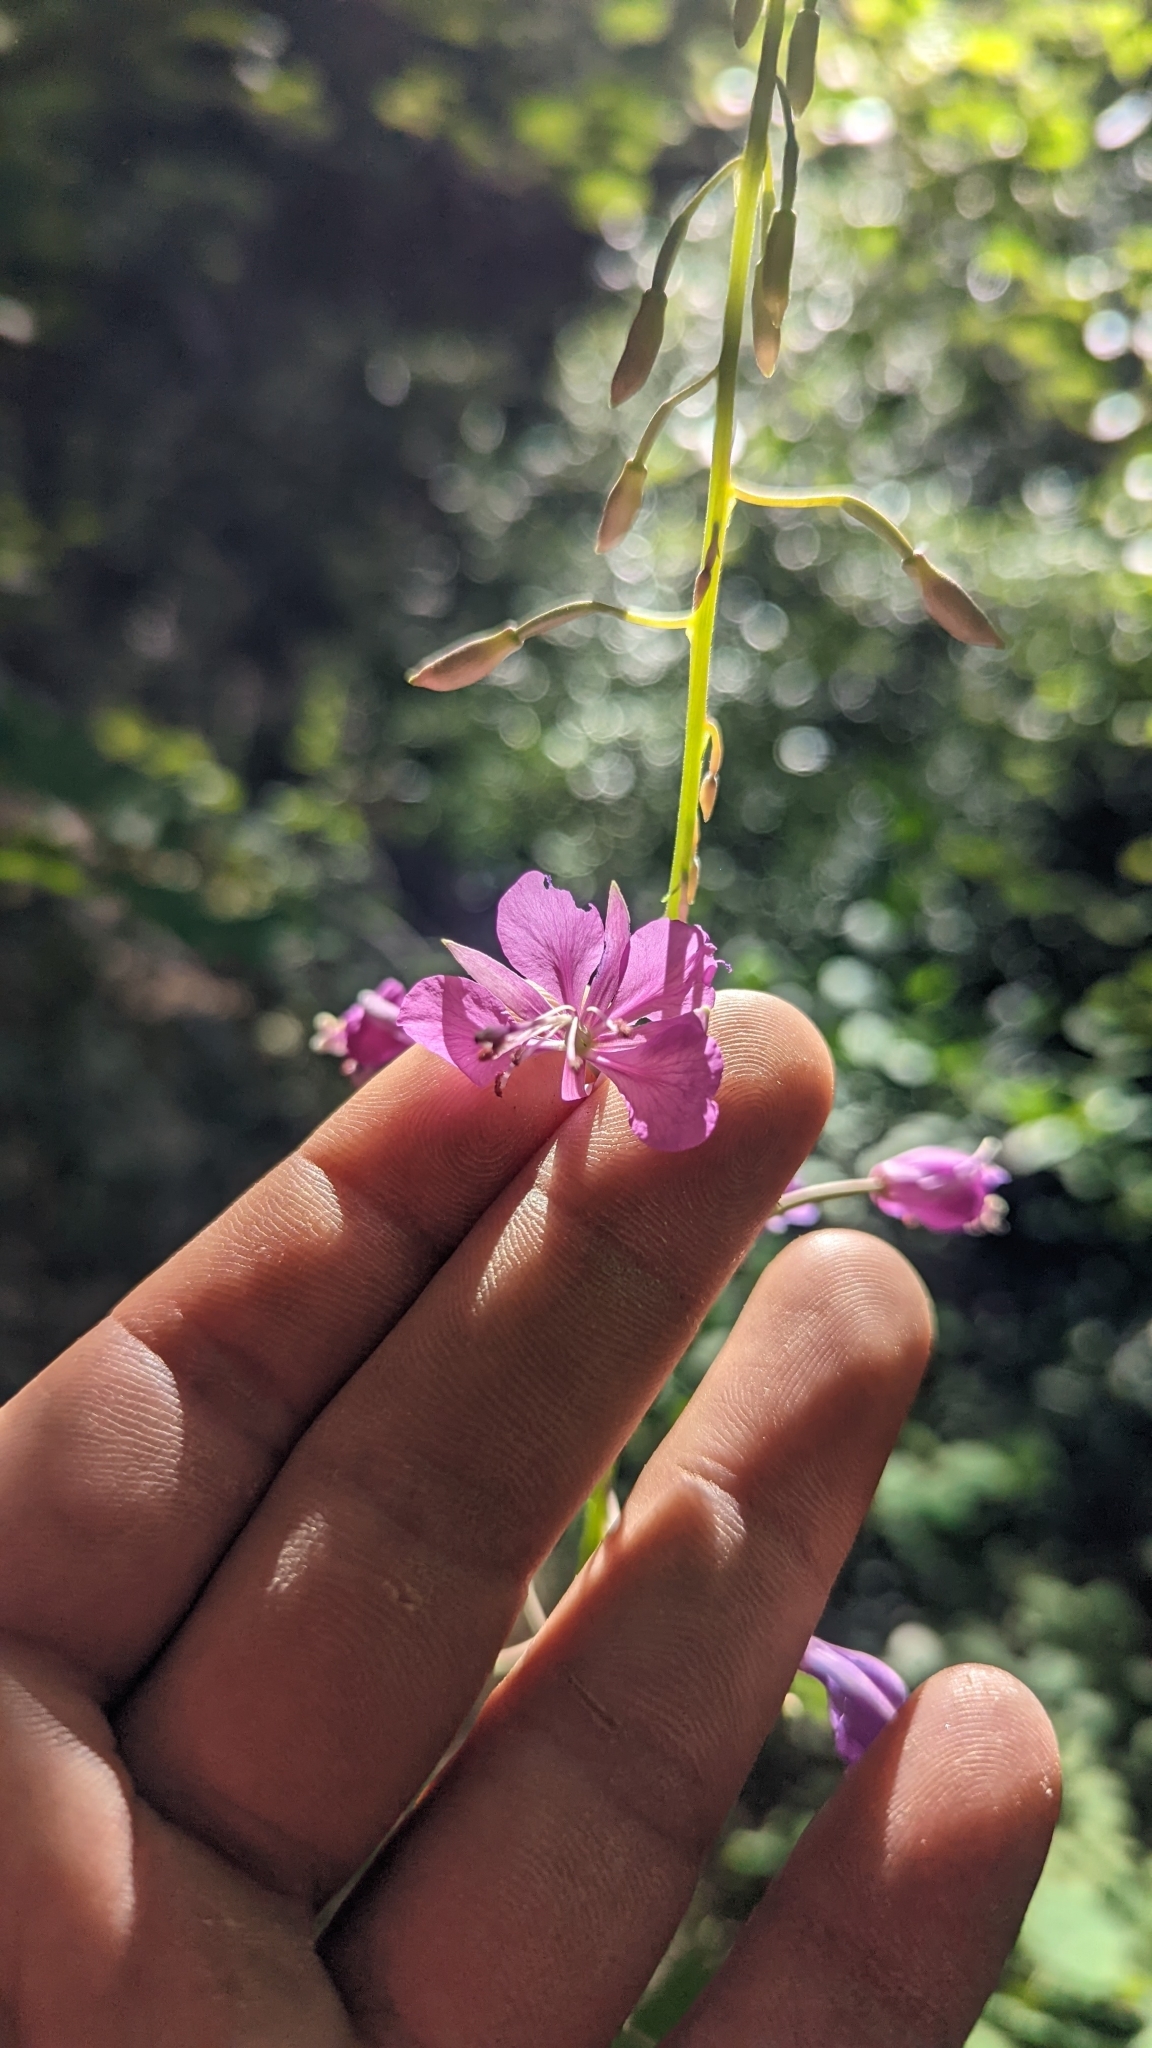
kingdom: Plantae
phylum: Tracheophyta
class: Magnoliopsida
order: Myrtales
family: Onagraceae
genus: Chamaenerion
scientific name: Chamaenerion angustifolium
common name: Fireweed
